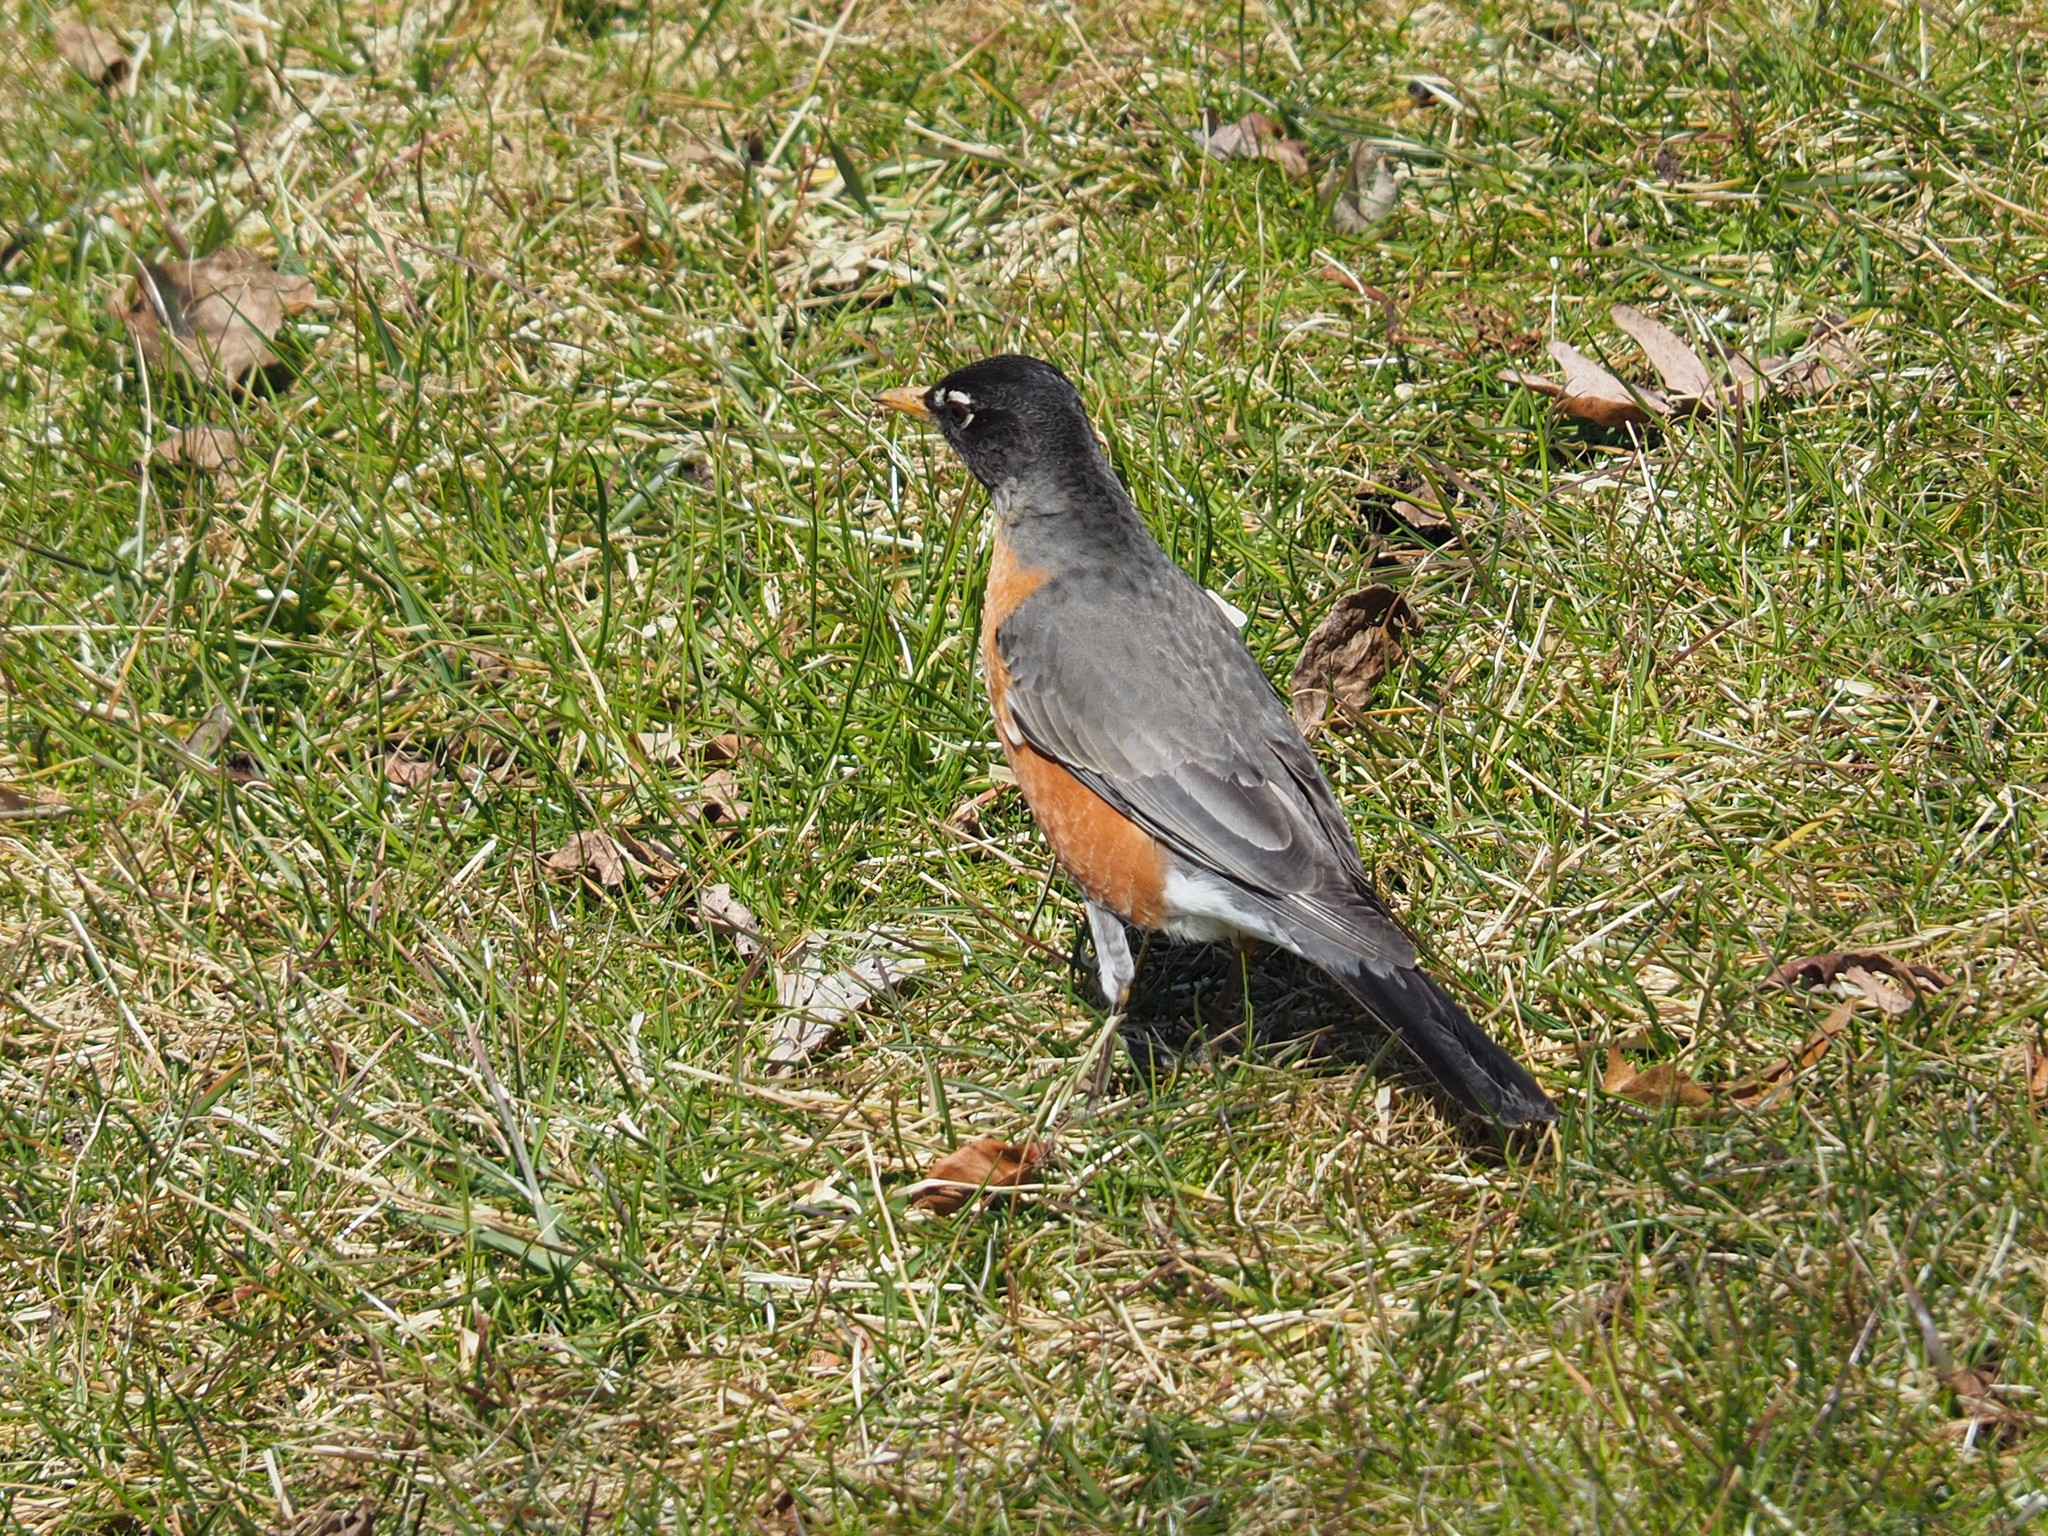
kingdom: Animalia
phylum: Chordata
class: Aves
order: Passeriformes
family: Turdidae
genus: Turdus
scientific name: Turdus migratorius
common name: American robin
